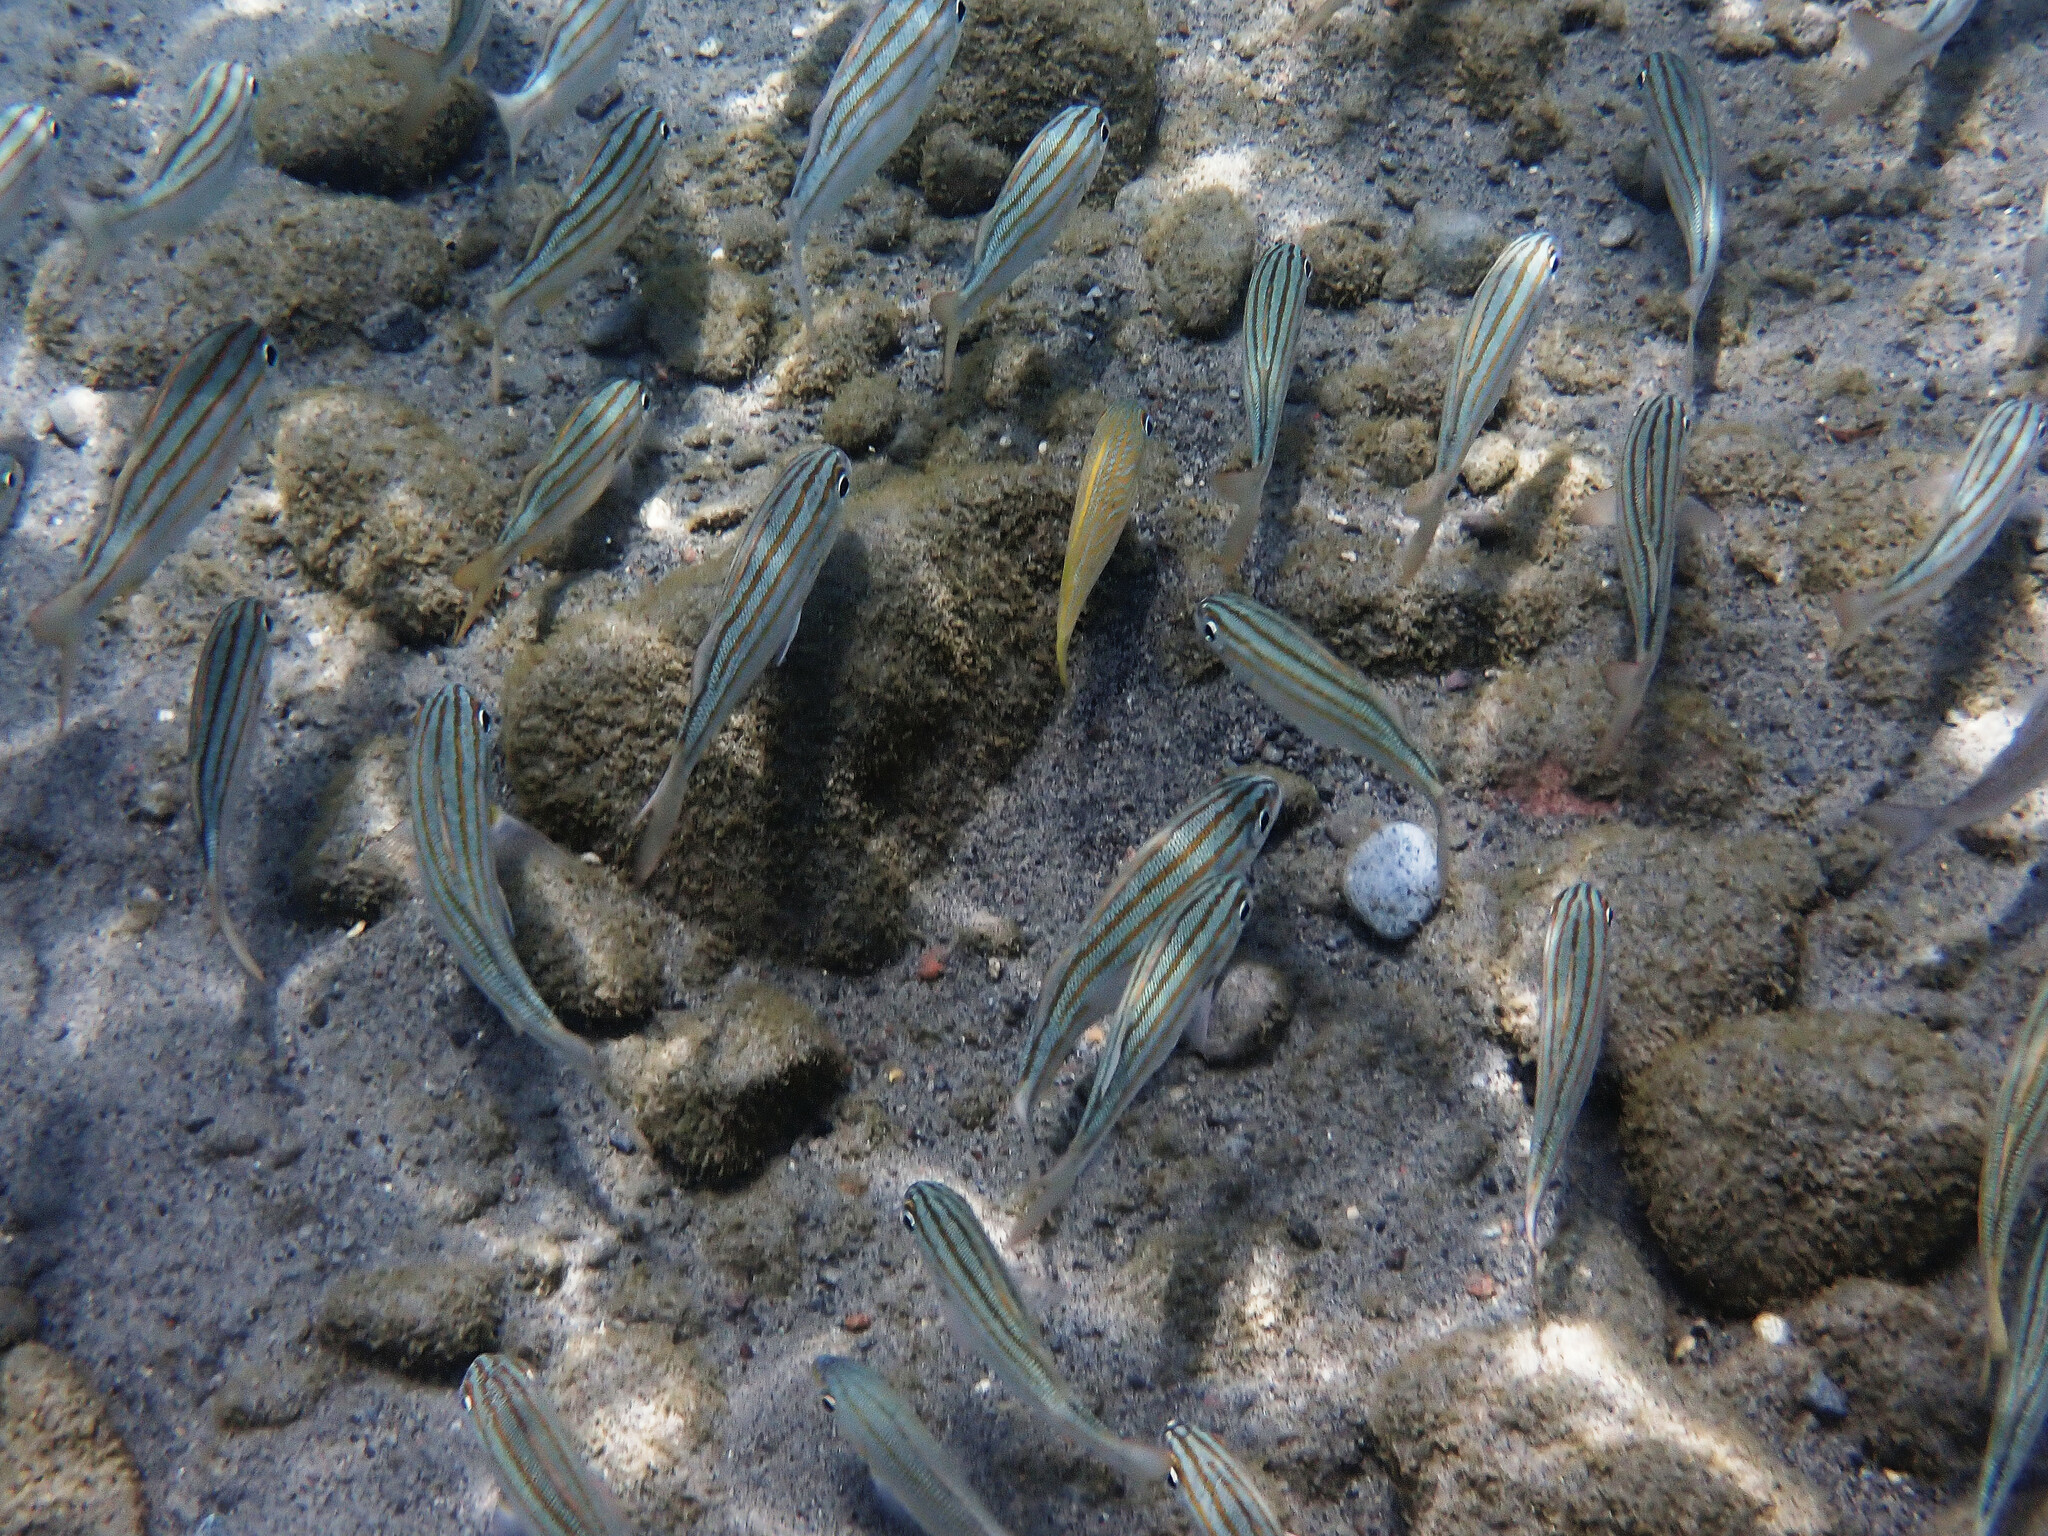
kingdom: Animalia
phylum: Chordata
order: Perciformes
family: Haemulidae
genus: Haemulon
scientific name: Haemulon chrysargyreum
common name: Smallmouth grunt
